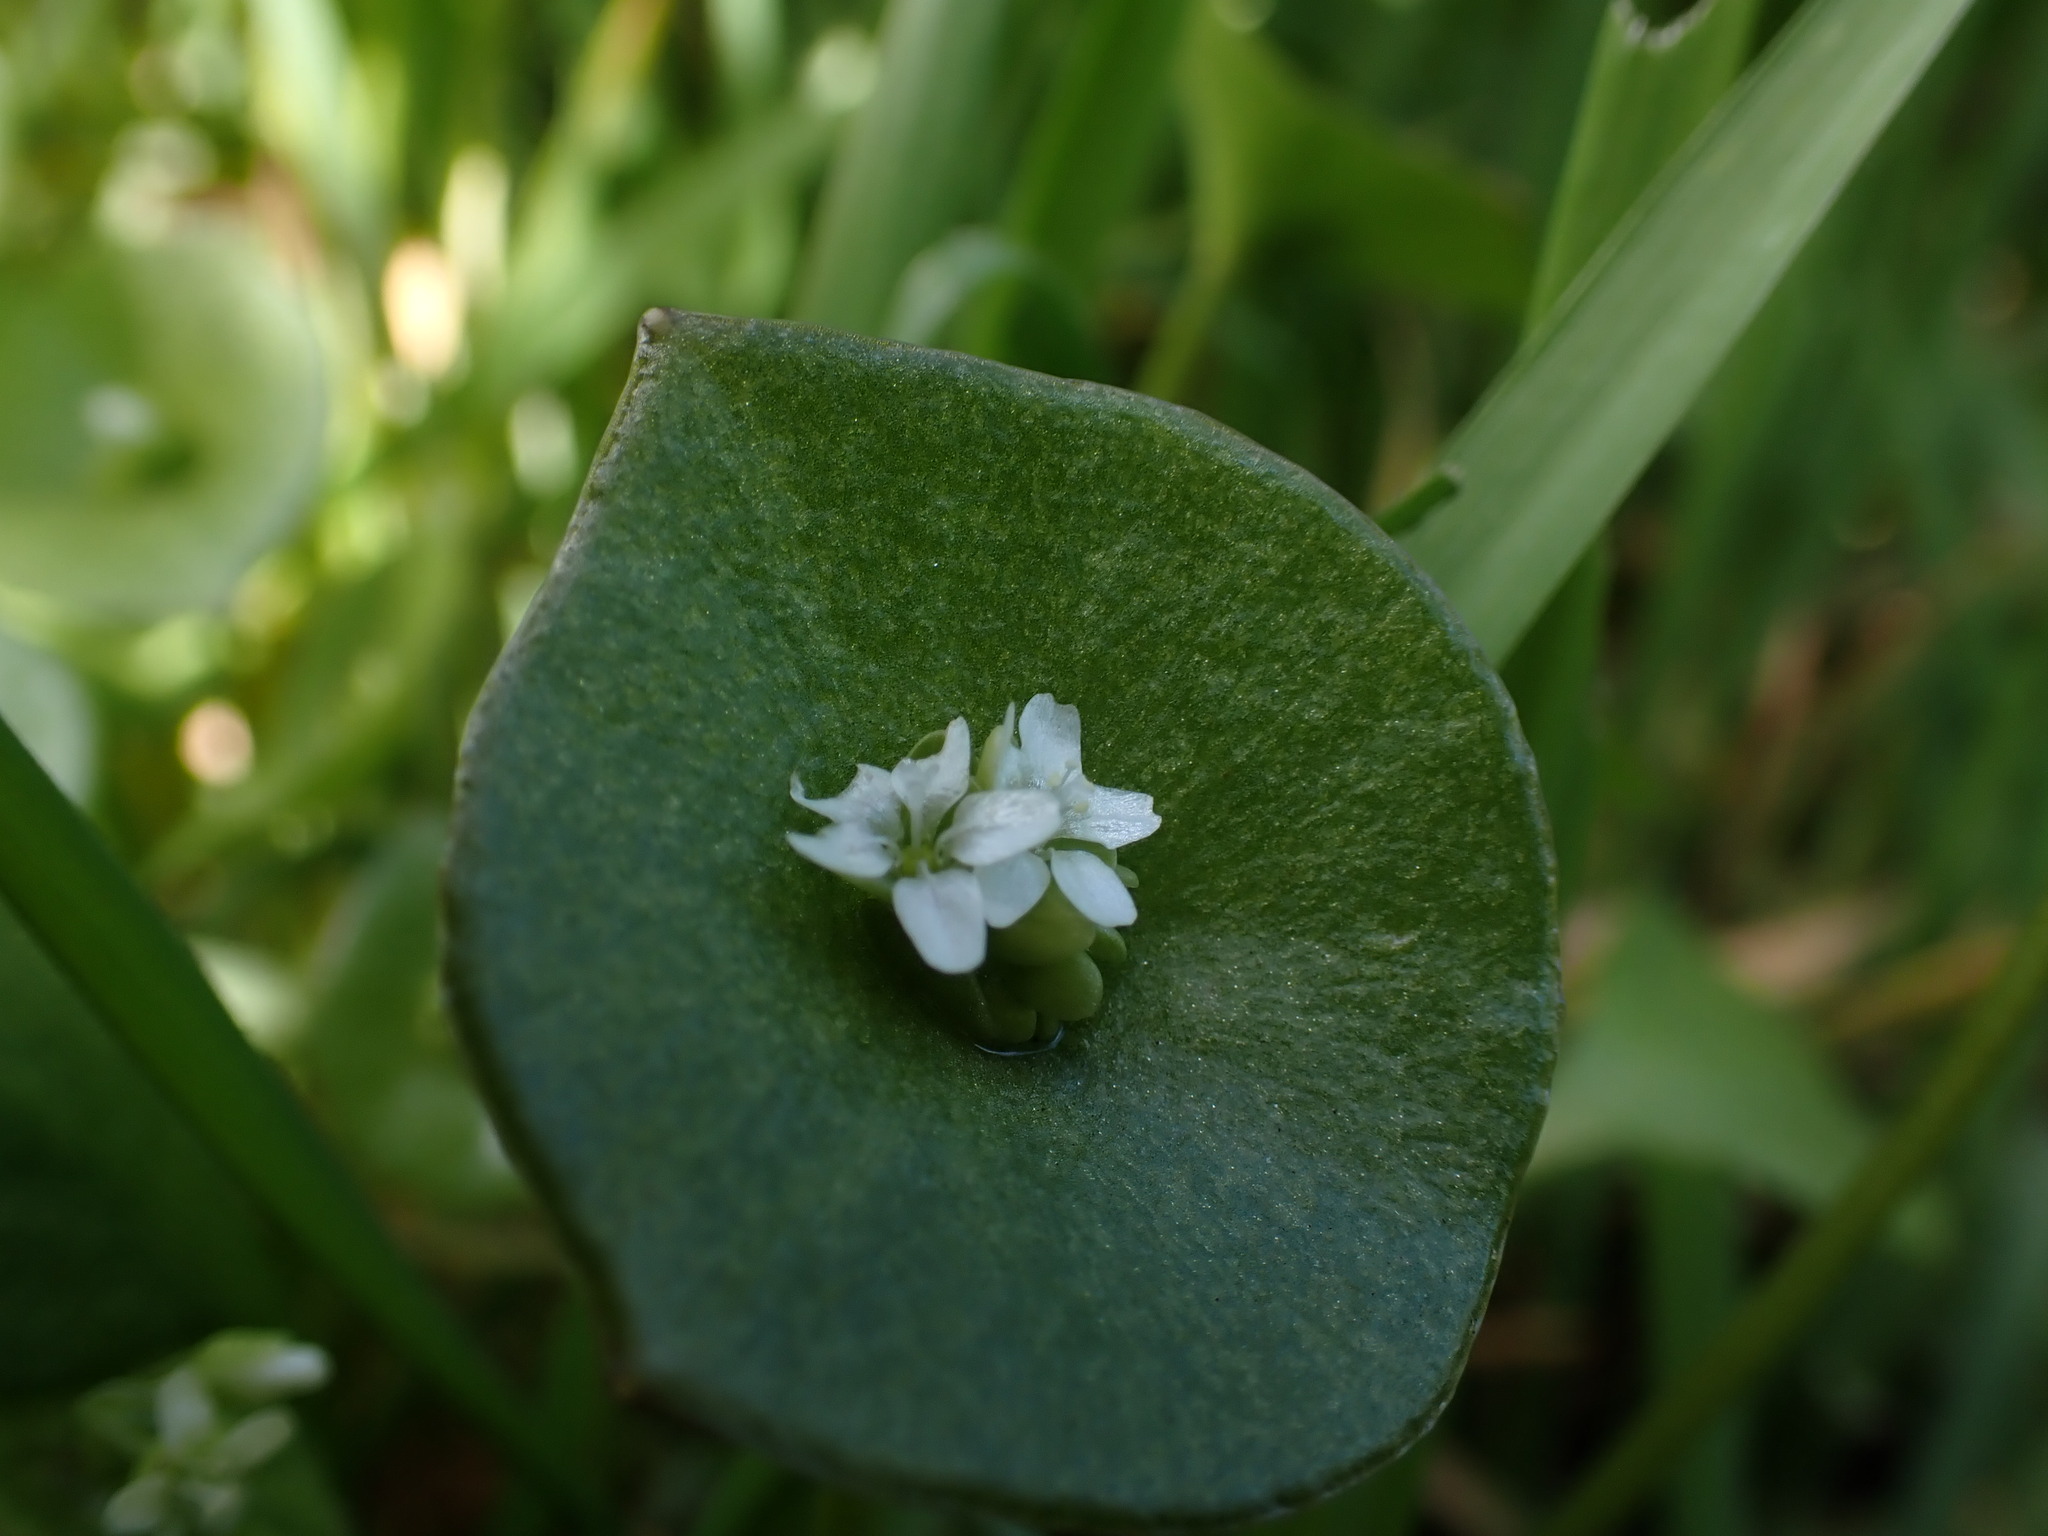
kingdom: Plantae
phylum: Tracheophyta
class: Magnoliopsida
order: Caryophyllales
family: Montiaceae
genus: Claytonia
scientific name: Claytonia perfoliata
